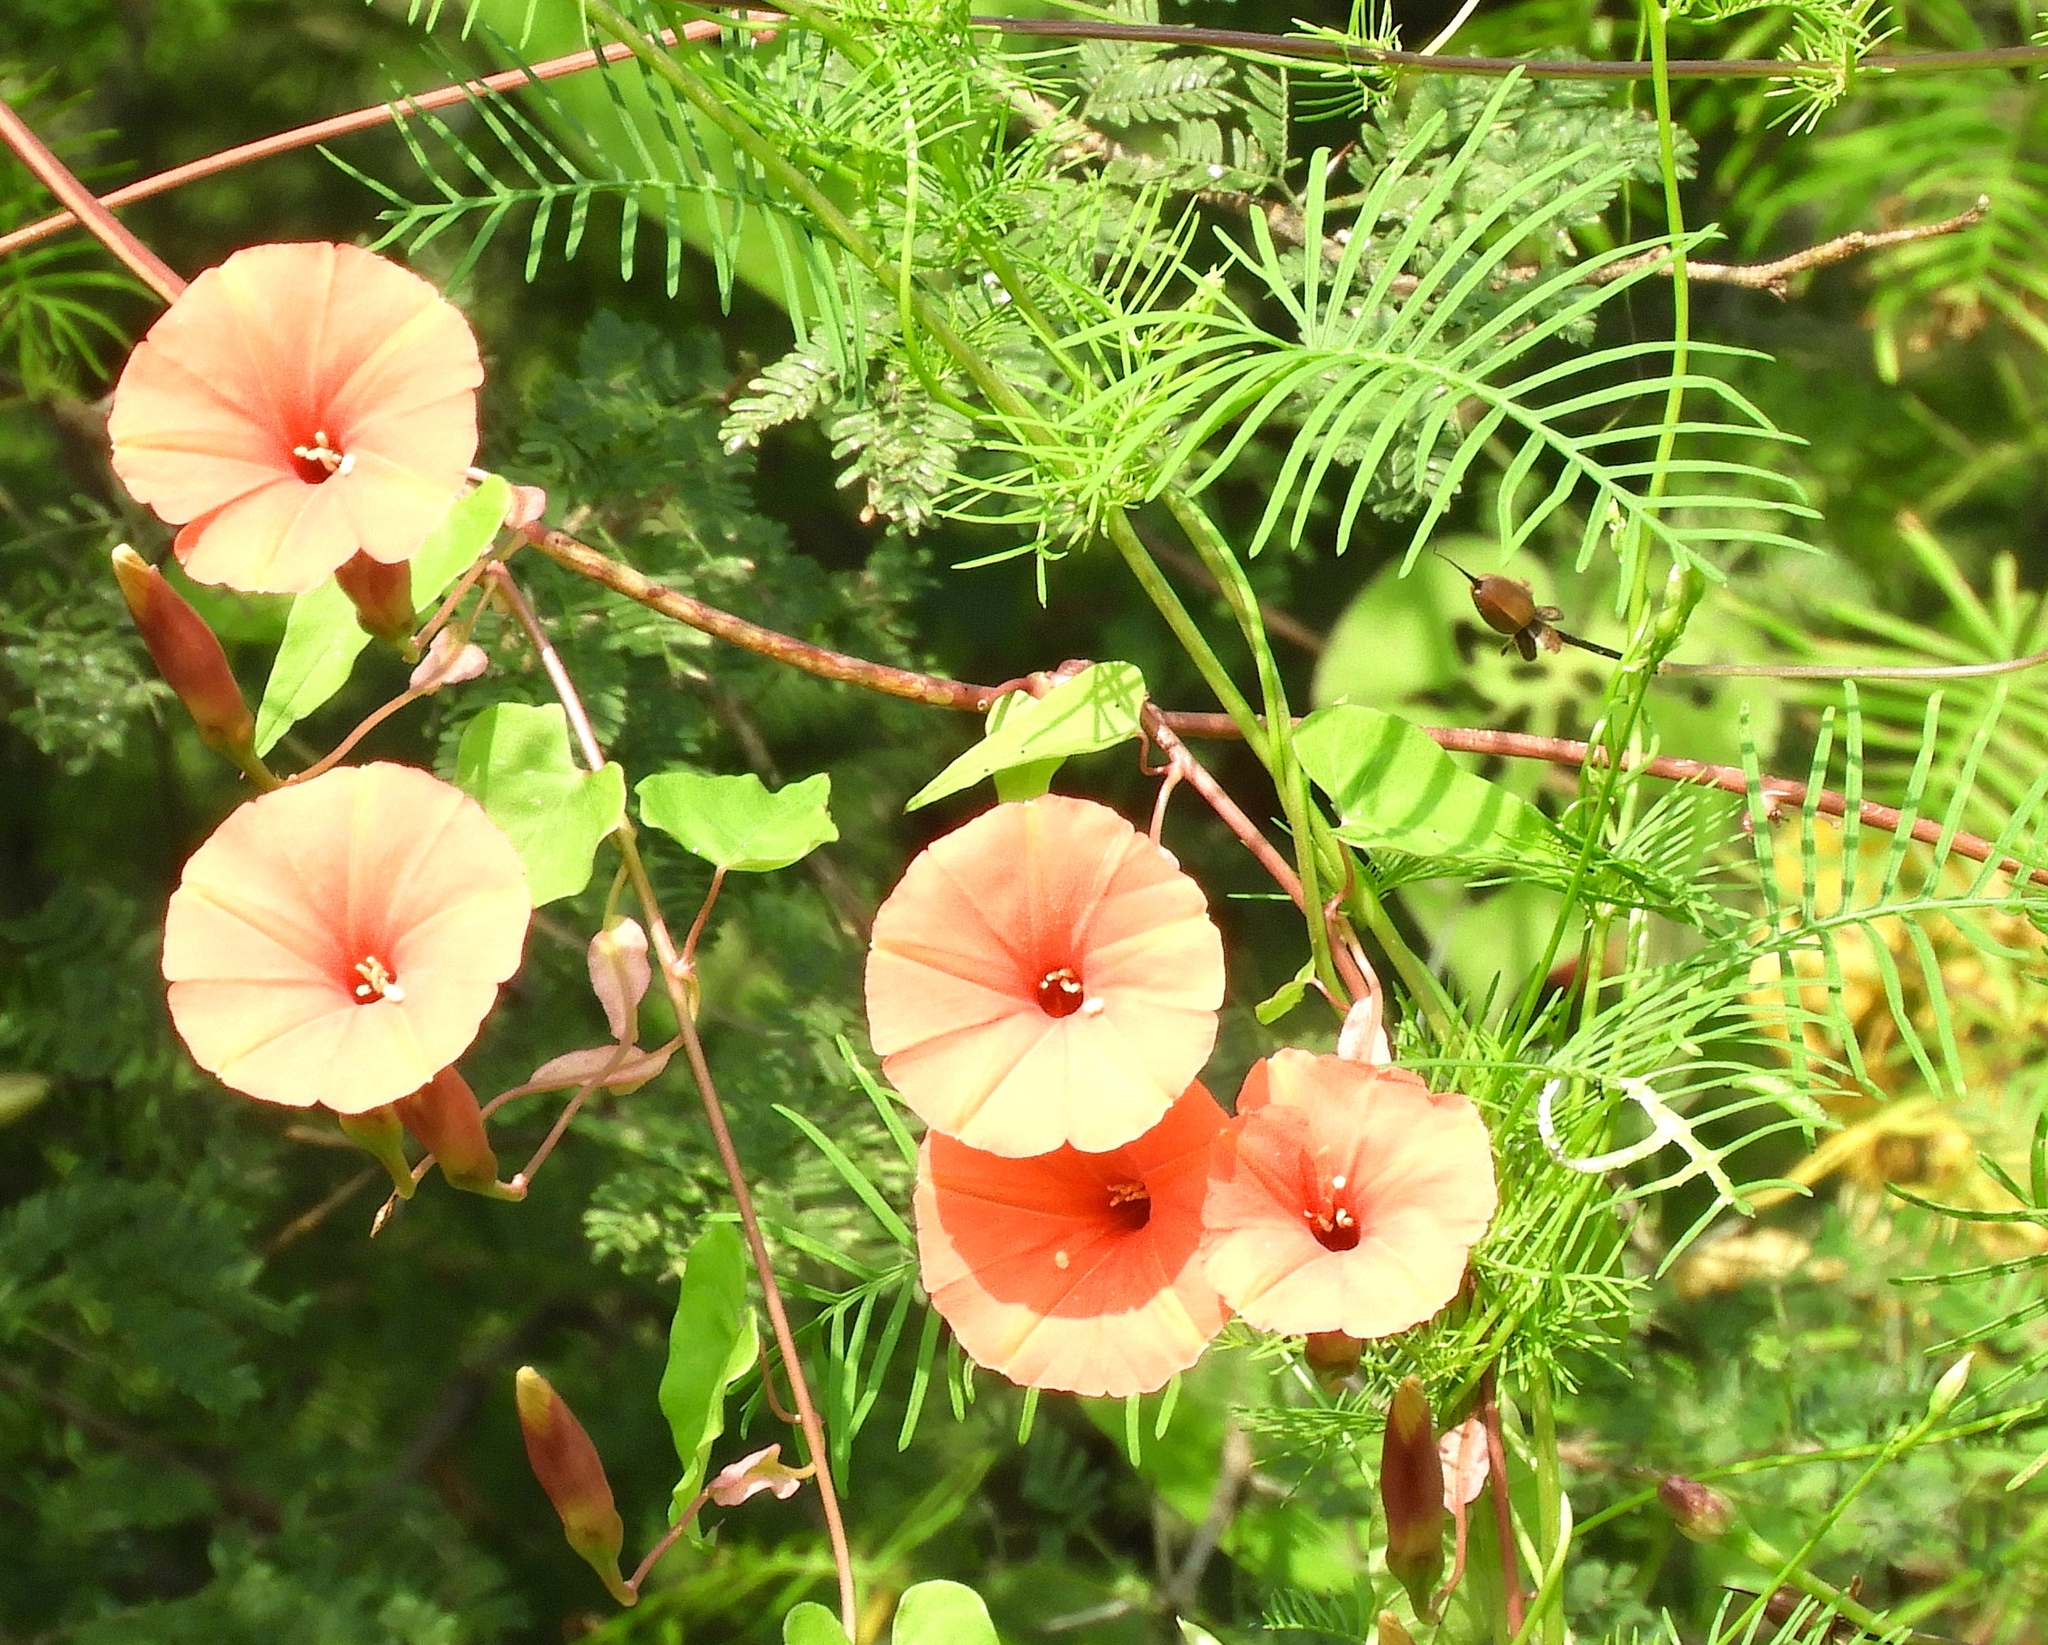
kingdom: Plantae
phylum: Tracheophyta
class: Magnoliopsida
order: Solanales
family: Convolvulaceae
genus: Operculina
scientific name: Operculina pteripes
